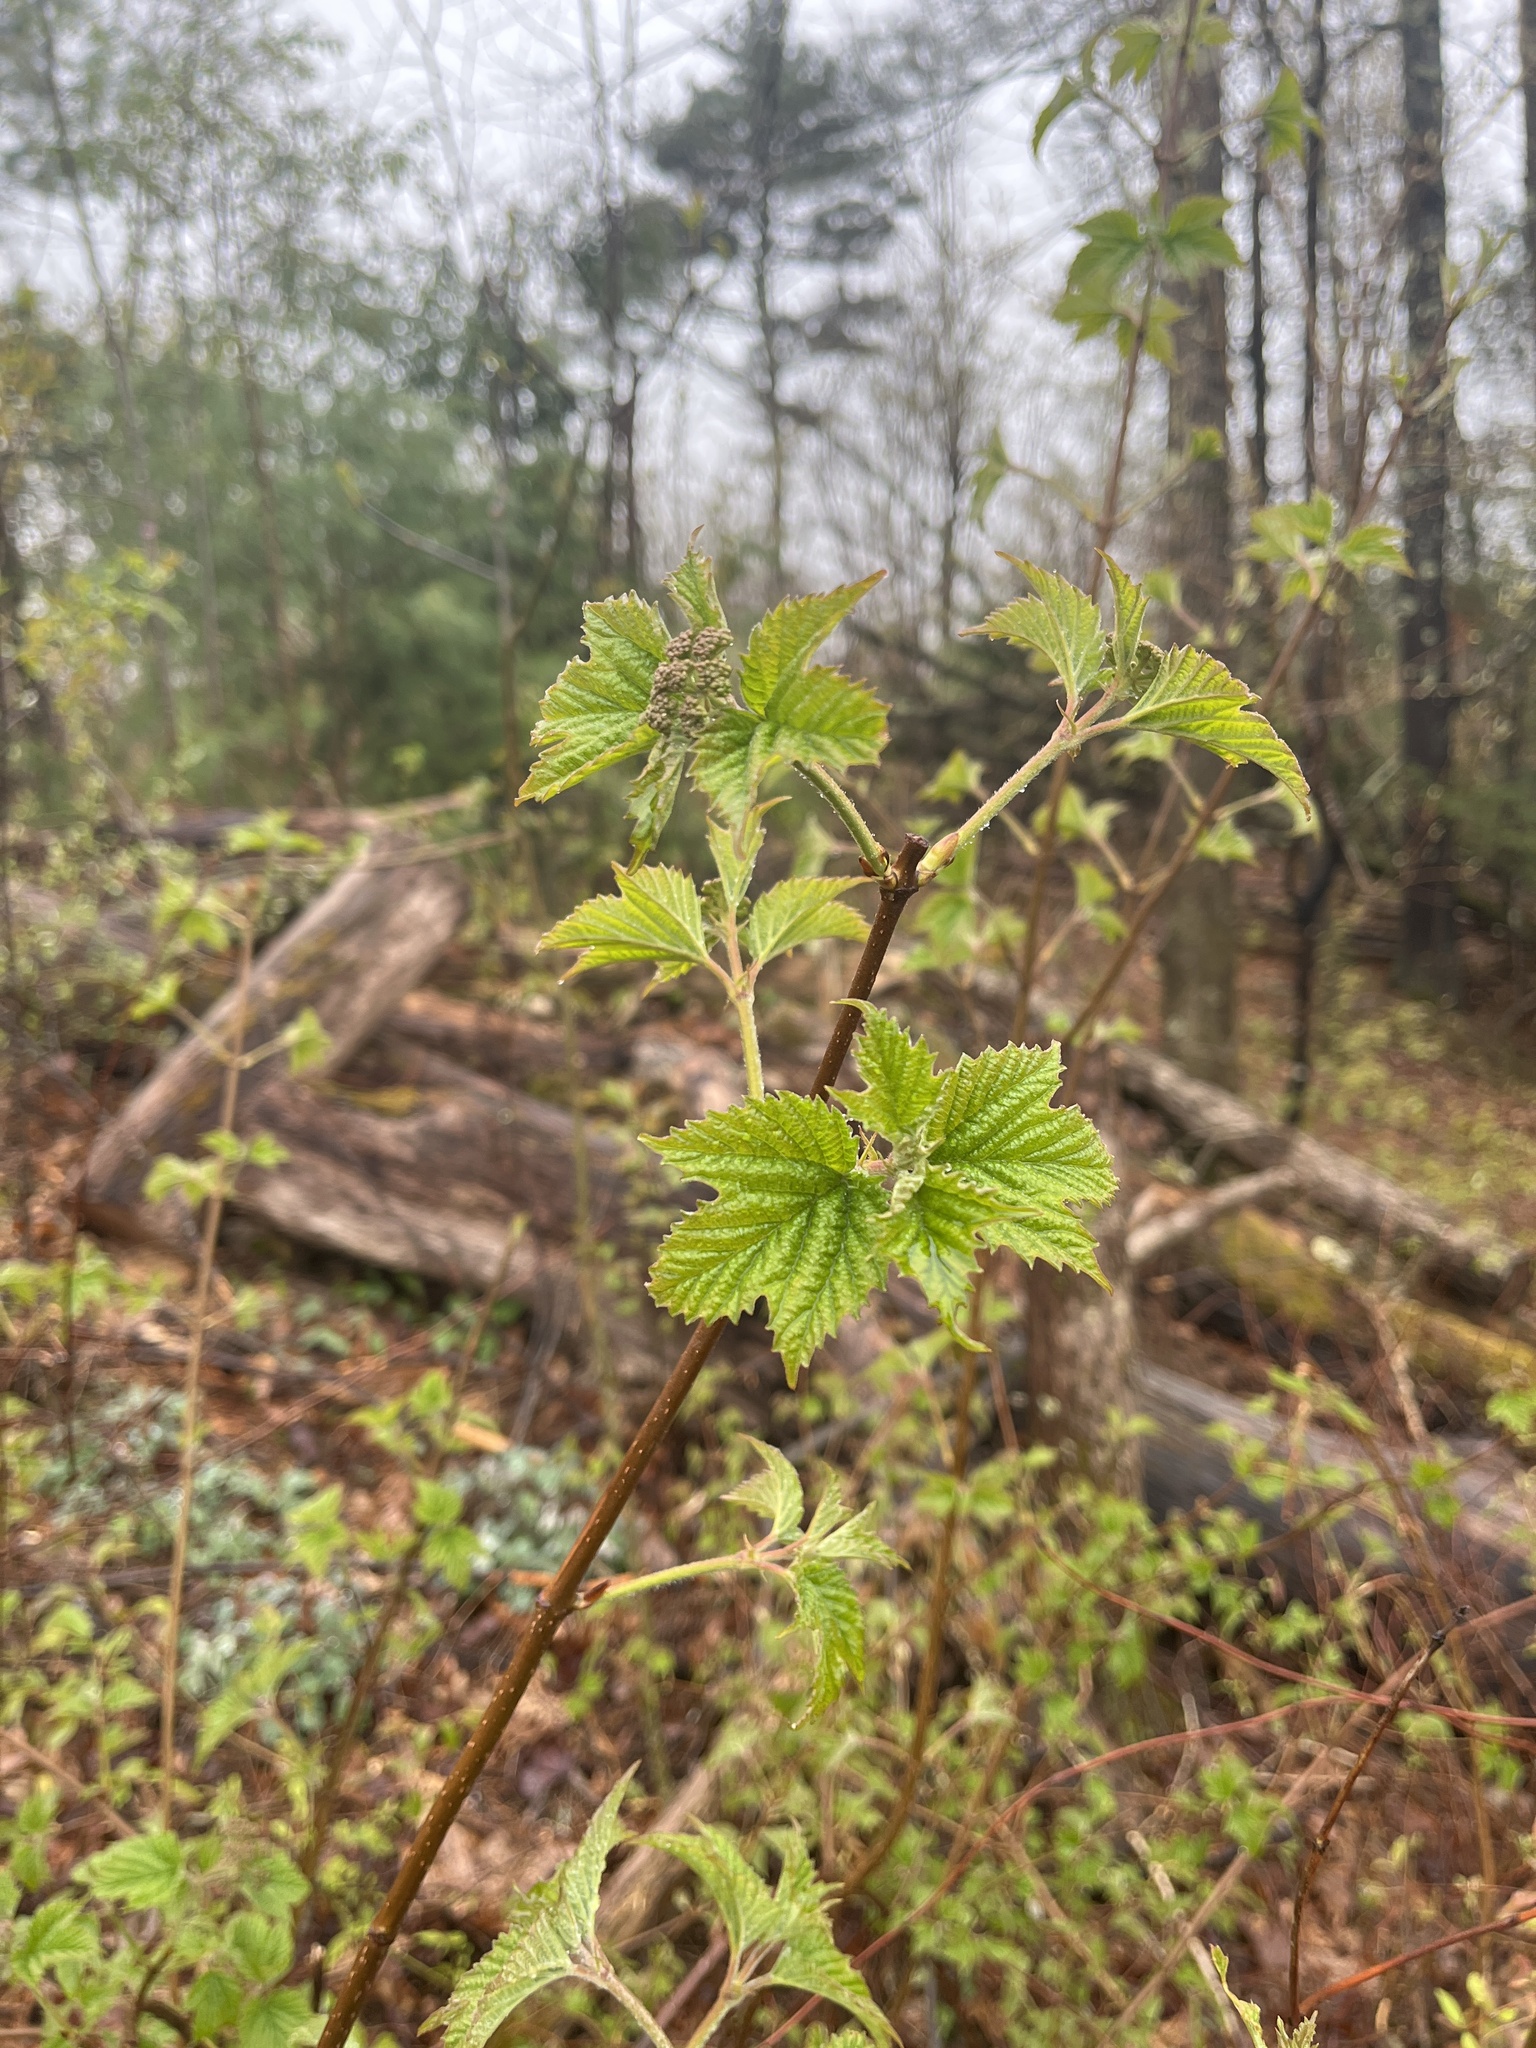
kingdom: Plantae
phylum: Tracheophyta
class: Magnoliopsida
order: Dipsacales
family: Viburnaceae
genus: Viburnum
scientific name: Viburnum acerifolium
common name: Dockmackie
